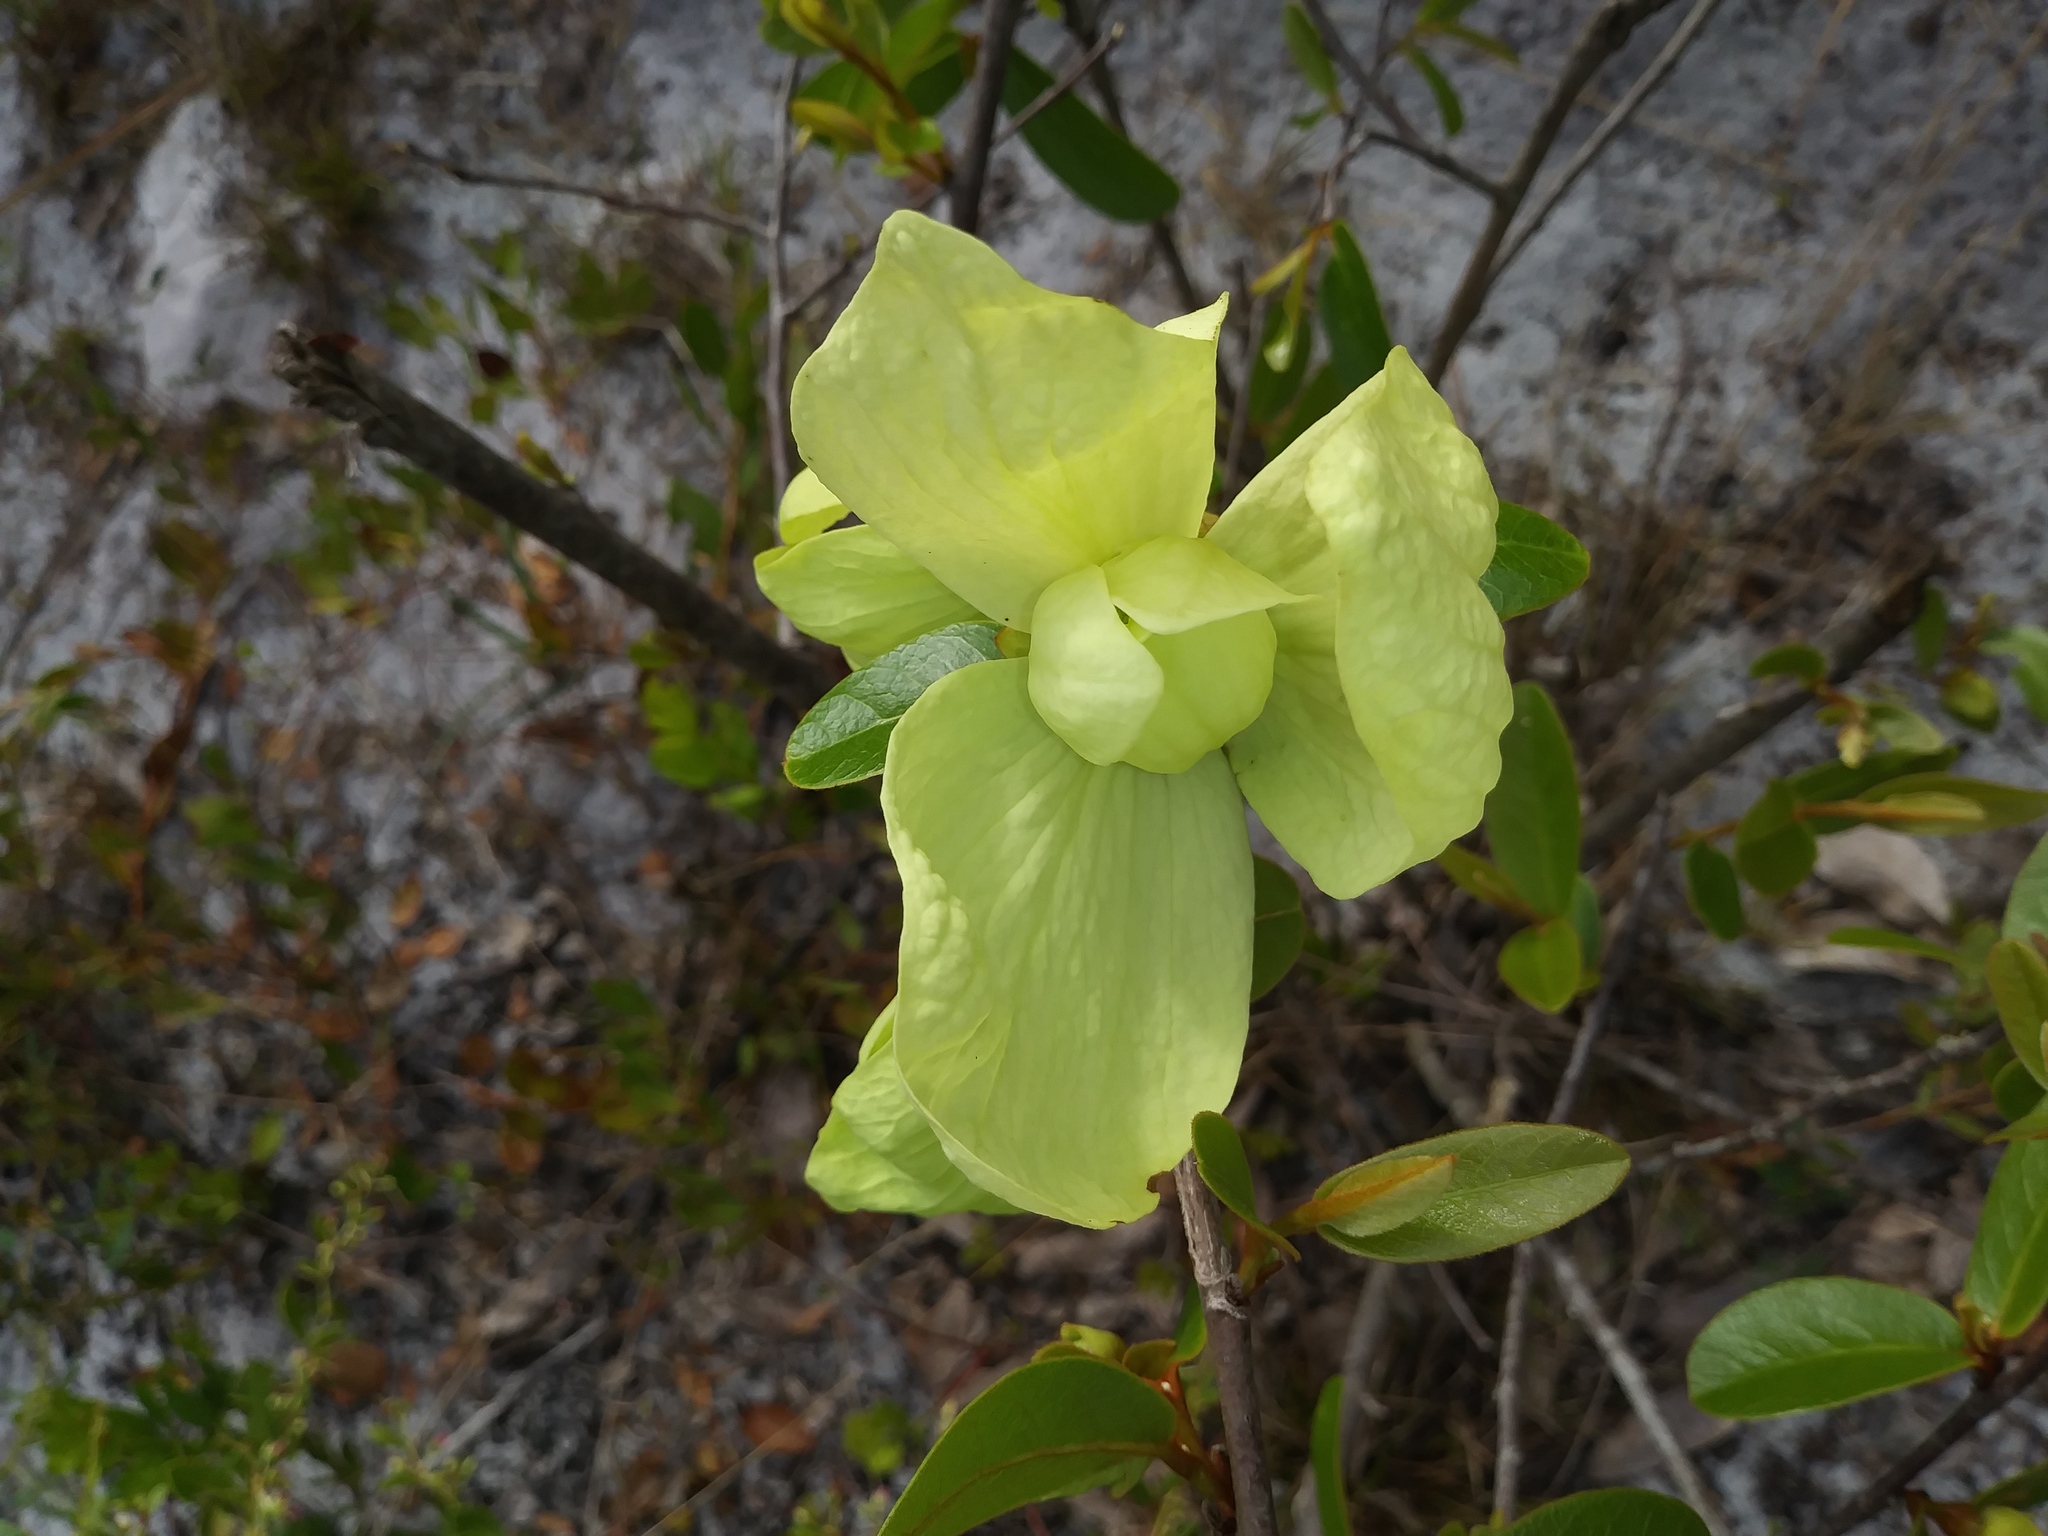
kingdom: Plantae
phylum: Tracheophyta
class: Magnoliopsida
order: Magnoliales
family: Annonaceae
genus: Asimina
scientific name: Asimina obovata
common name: Flag pawpaw
